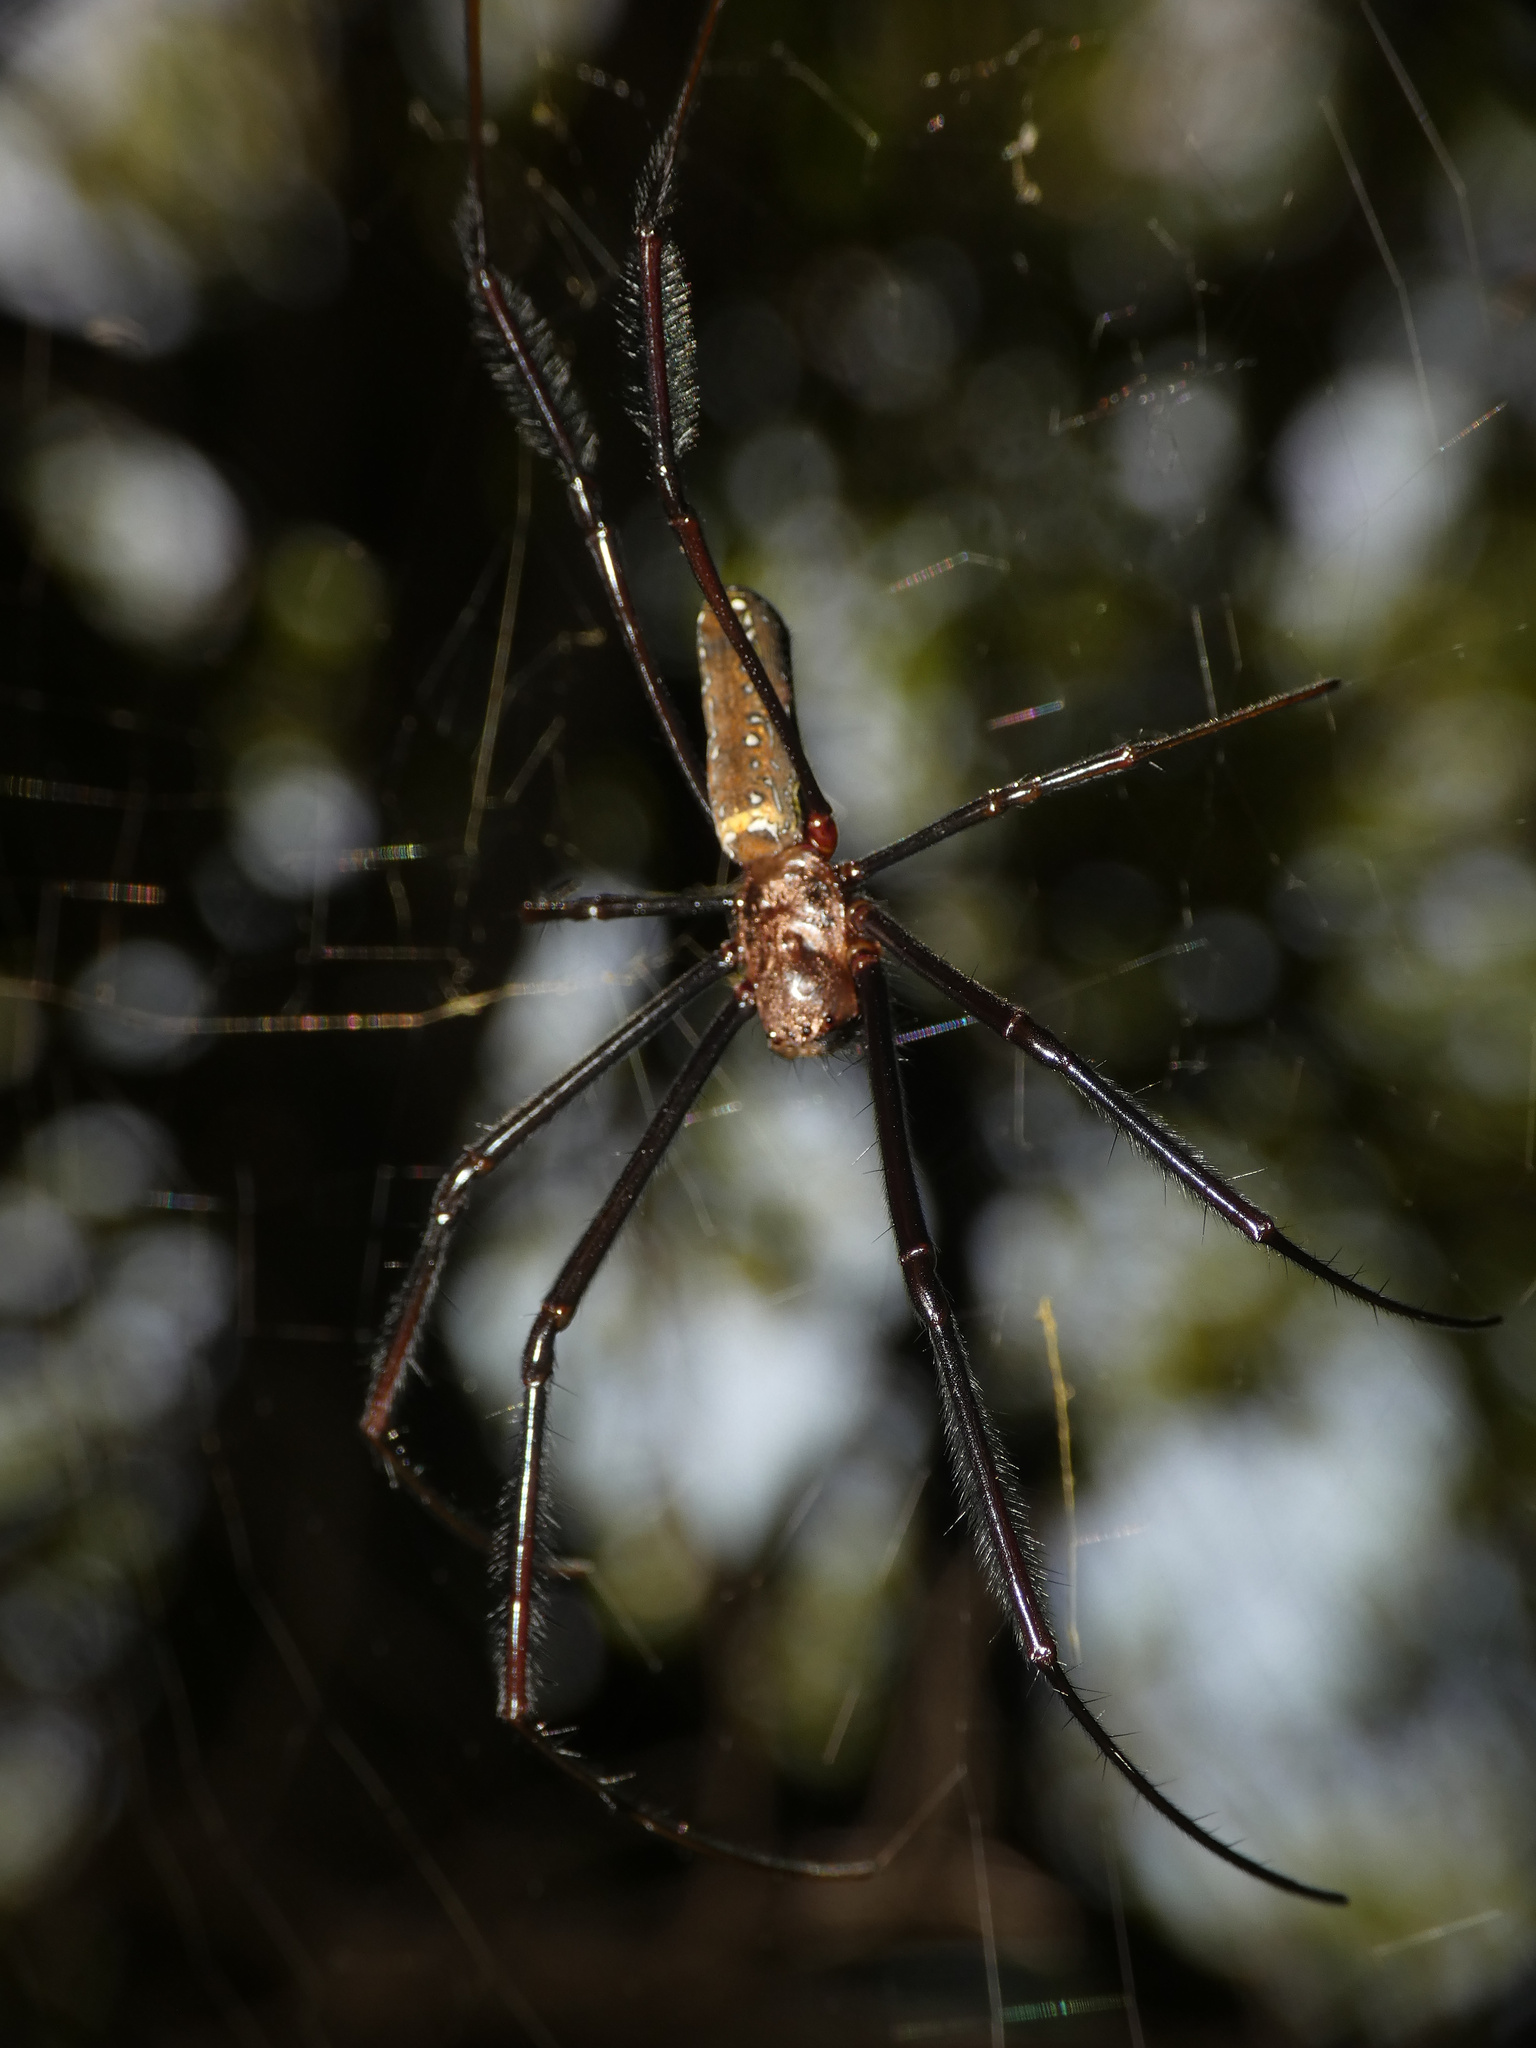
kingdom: Animalia
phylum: Arthropoda
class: Arachnida
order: Araneae
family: Araneidae
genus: Trichonephila
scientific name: Trichonephila fenestrata
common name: Hairy golden orb weaver
